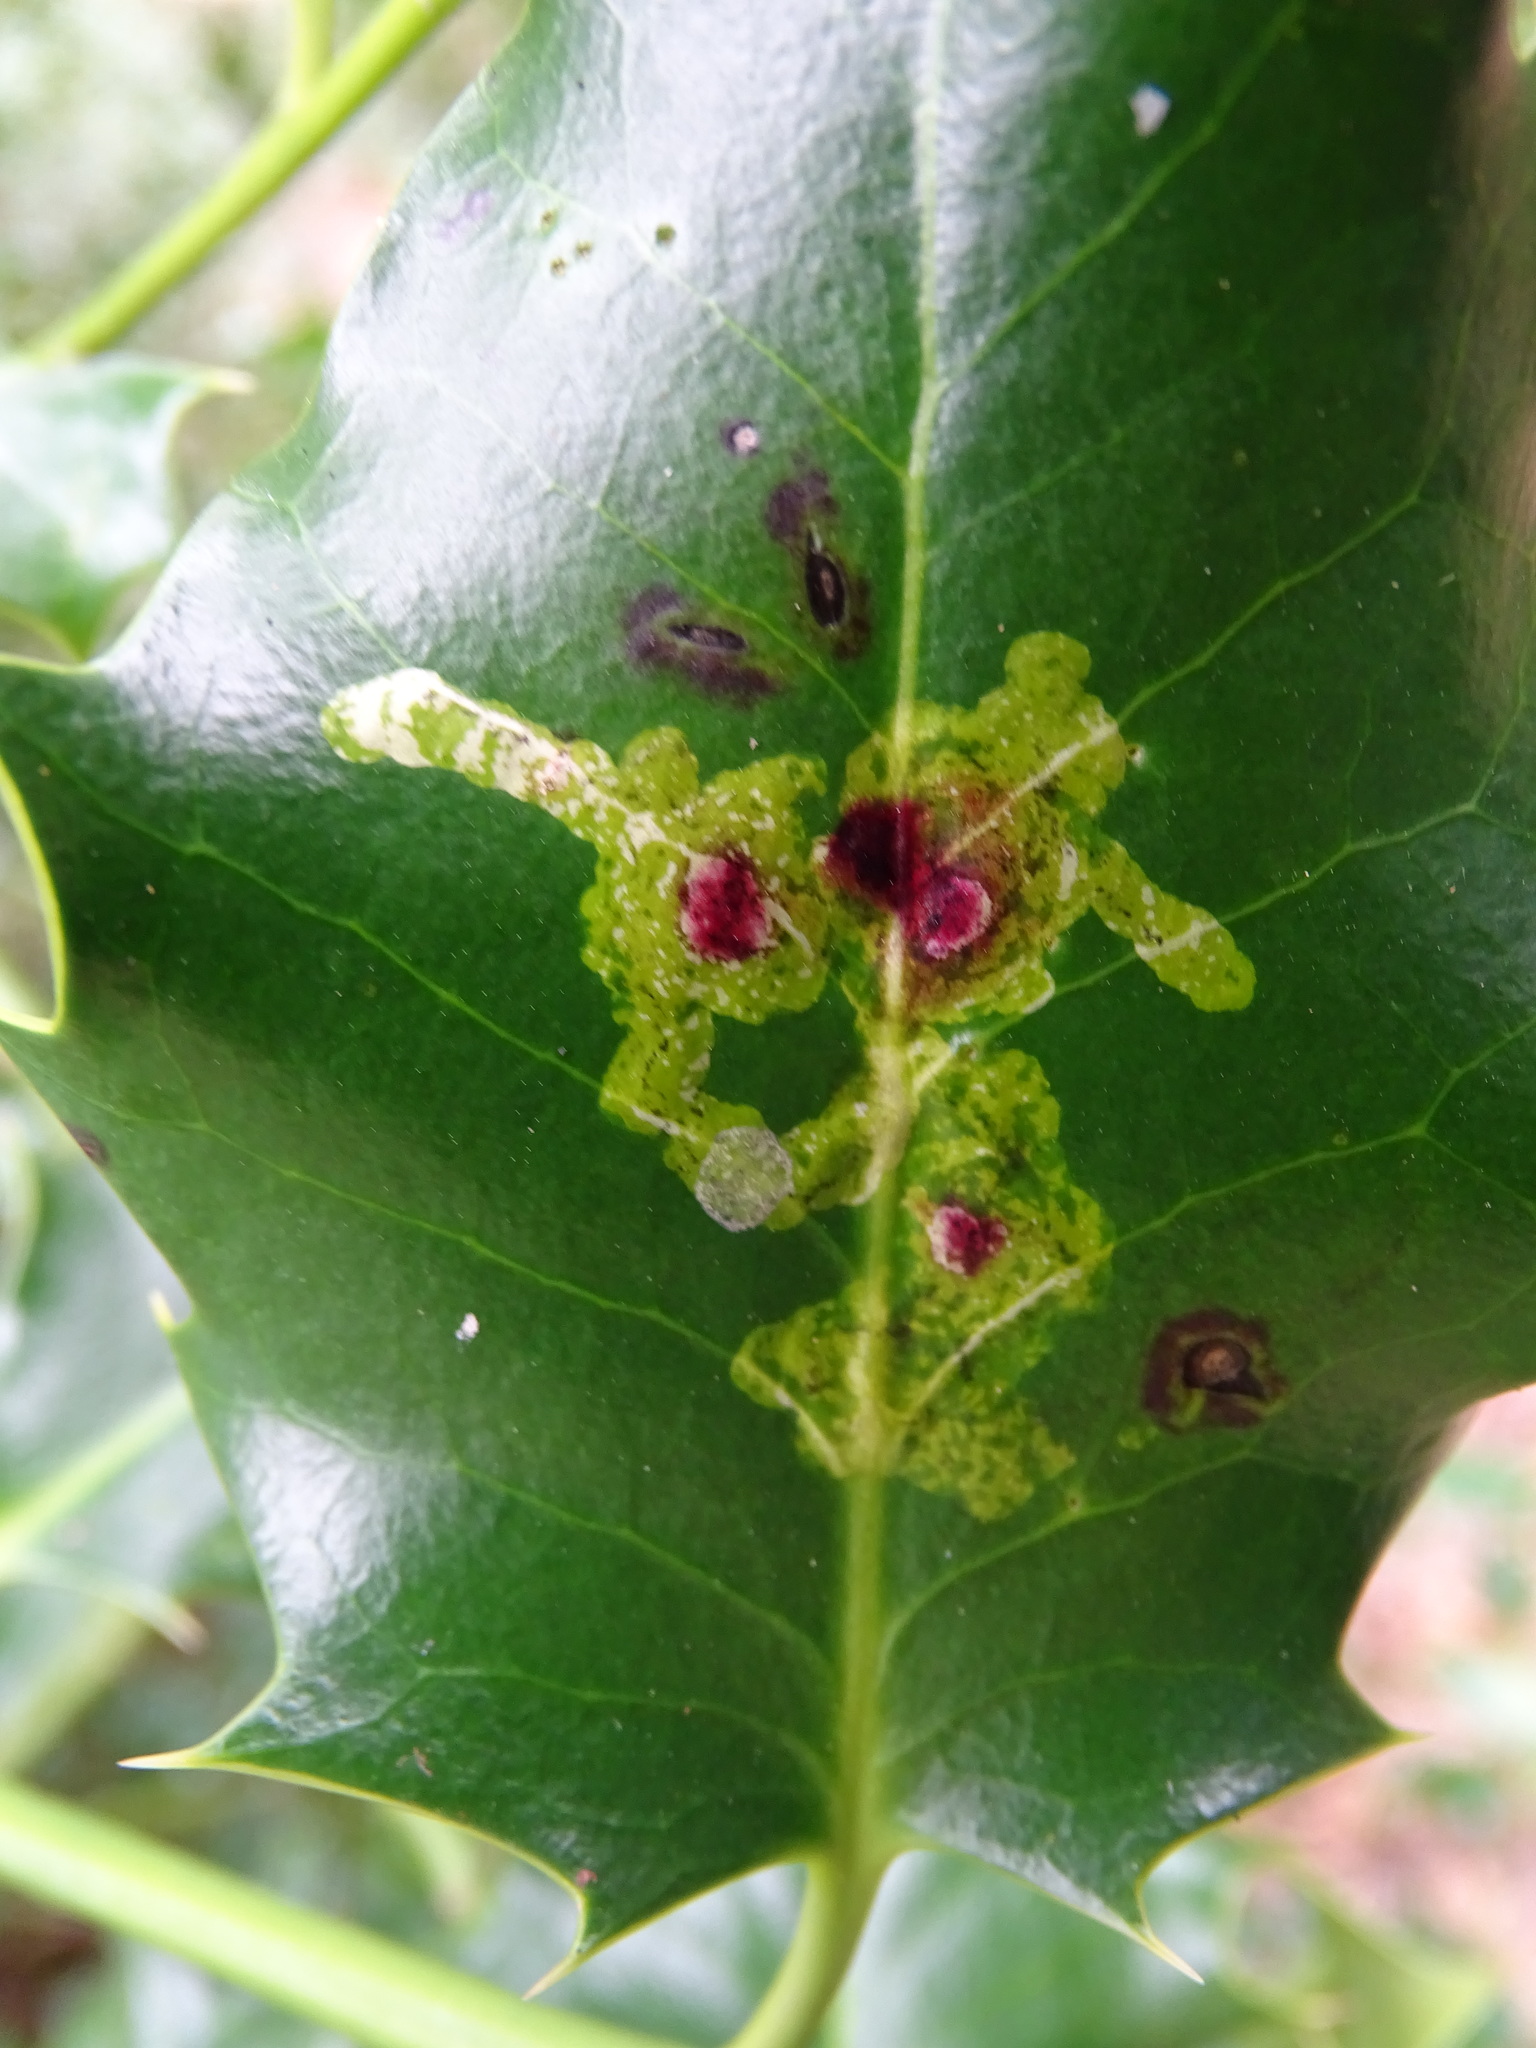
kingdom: Animalia
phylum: Arthropoda
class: Insecta
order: Diptera
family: Agromyzidae
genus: Phytomyza
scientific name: Phytomyza ilicis
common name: Holly leafminer
